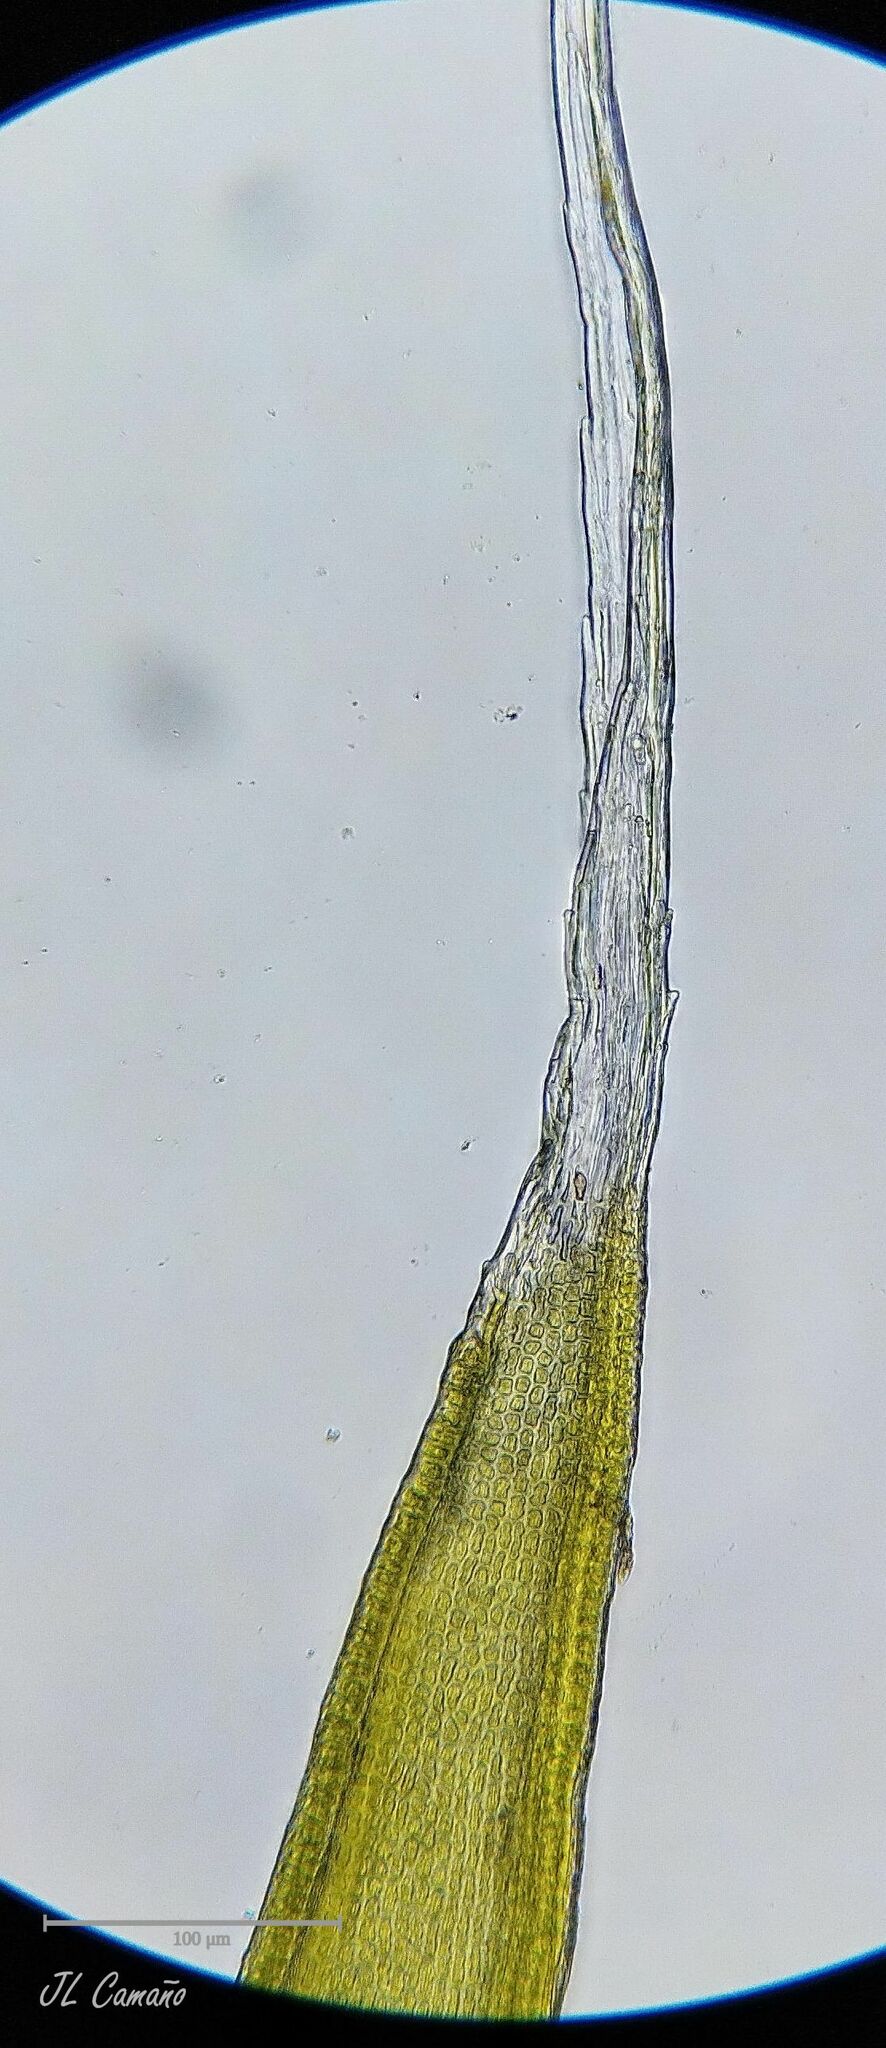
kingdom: Plantae
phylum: Bryophyta
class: Bryopsida
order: Grimmiales
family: Grimmiaceae
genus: Bucklandiella
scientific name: Bucklandiella heterosticha
